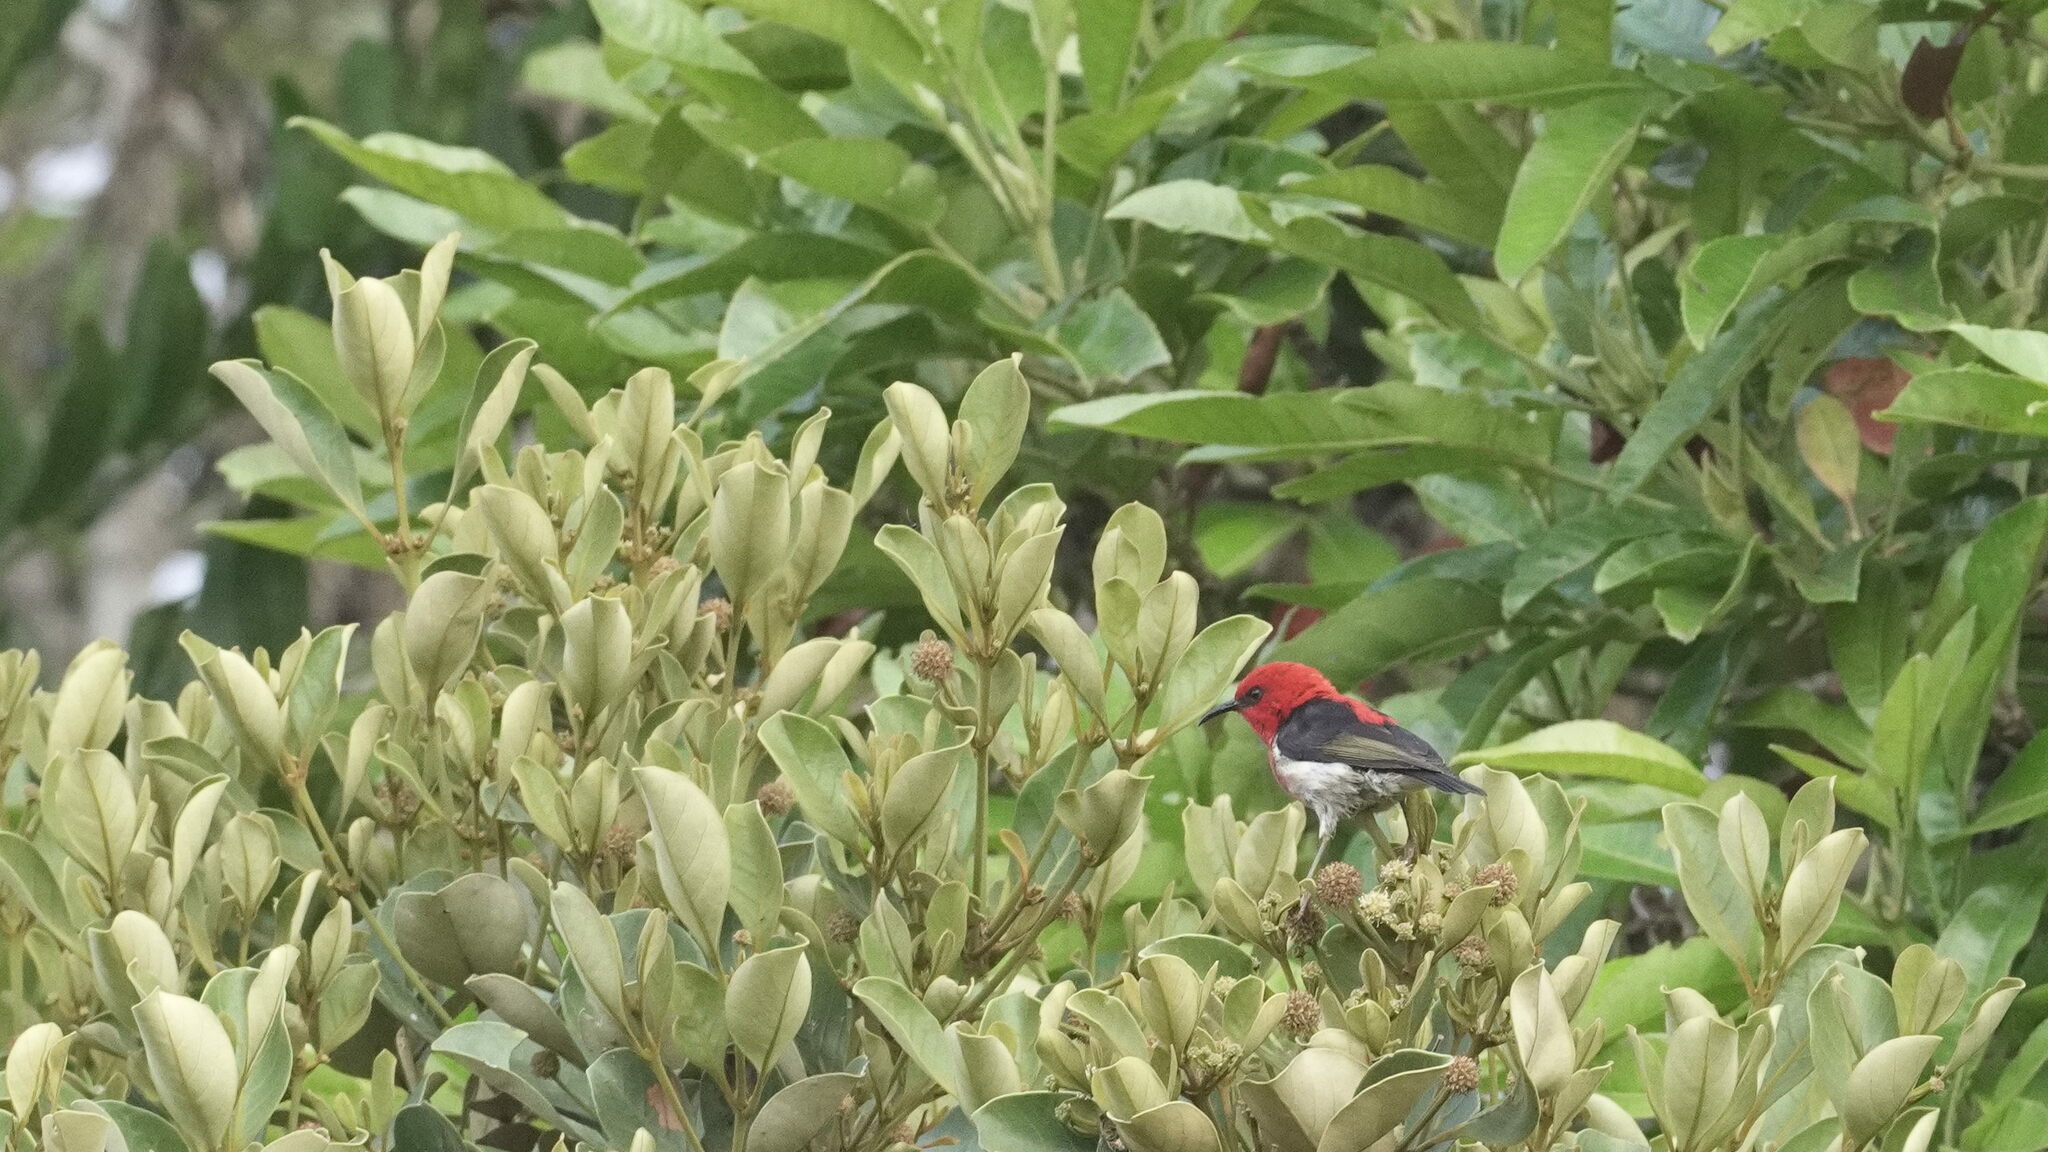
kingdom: Animalia
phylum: Chordata
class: Aves
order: Passeriformes
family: Meliphagidae
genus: Myzomela
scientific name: Myzomela caledonica
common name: New caledonian myzomela
